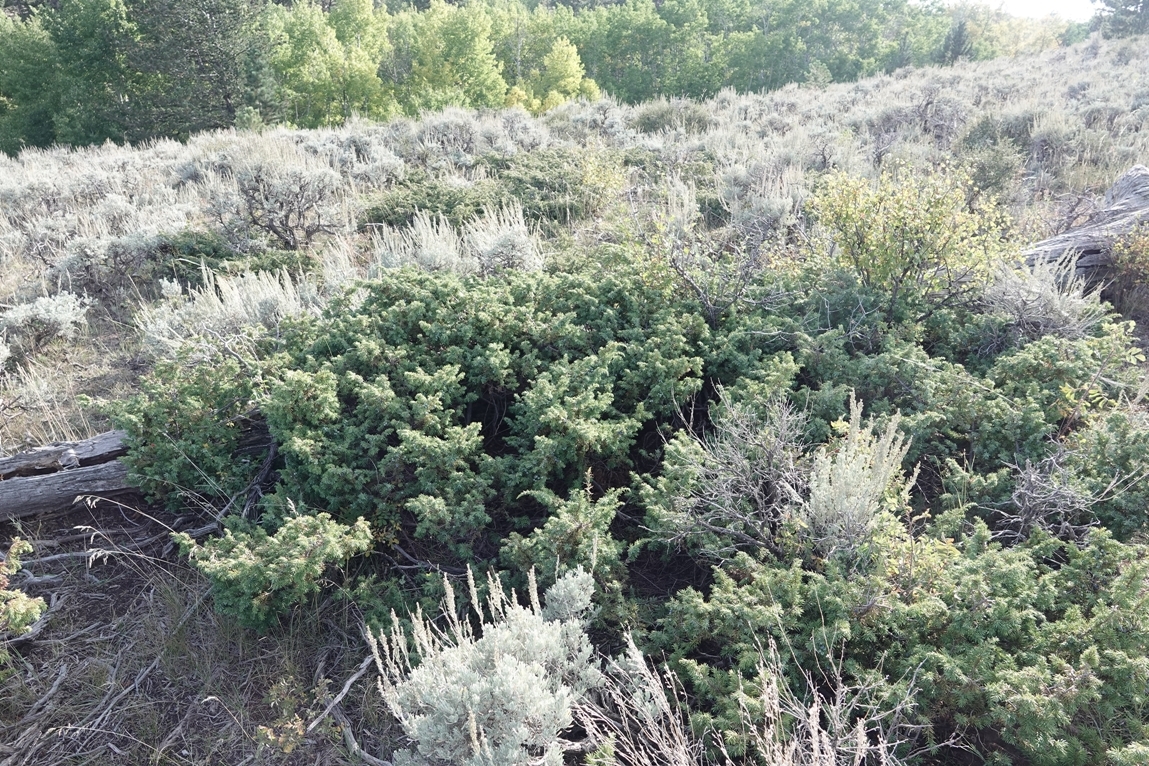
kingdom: Plantae
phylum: Tracheophyta
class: Pinopsida
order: Pinales
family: Cupressaceae
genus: Juniperus
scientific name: Juniperus communis
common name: Common juniper
